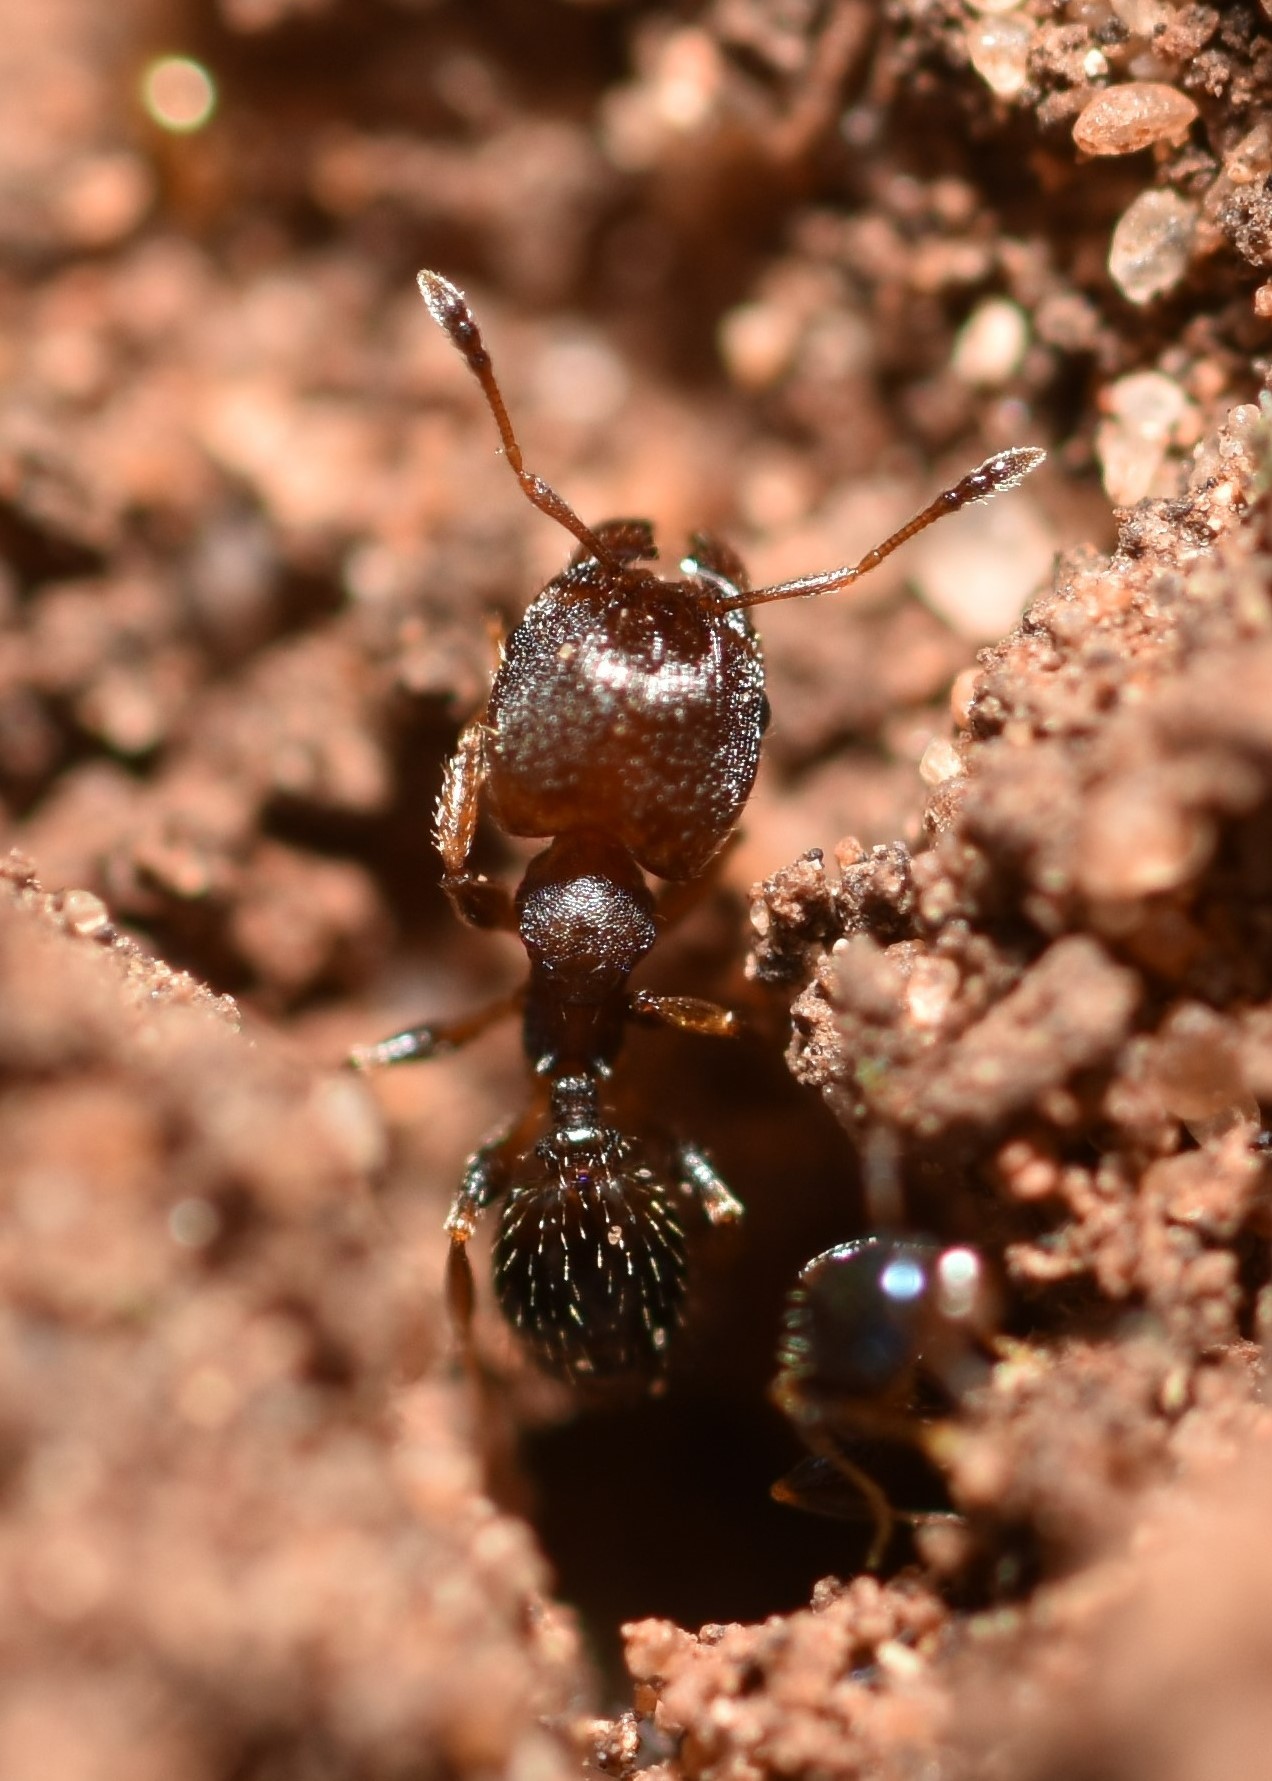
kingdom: Animalia
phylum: Arthropoda
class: Insecta
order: Hymenoptera
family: Formicidae
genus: Pheidole
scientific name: Pheidole metallescens
